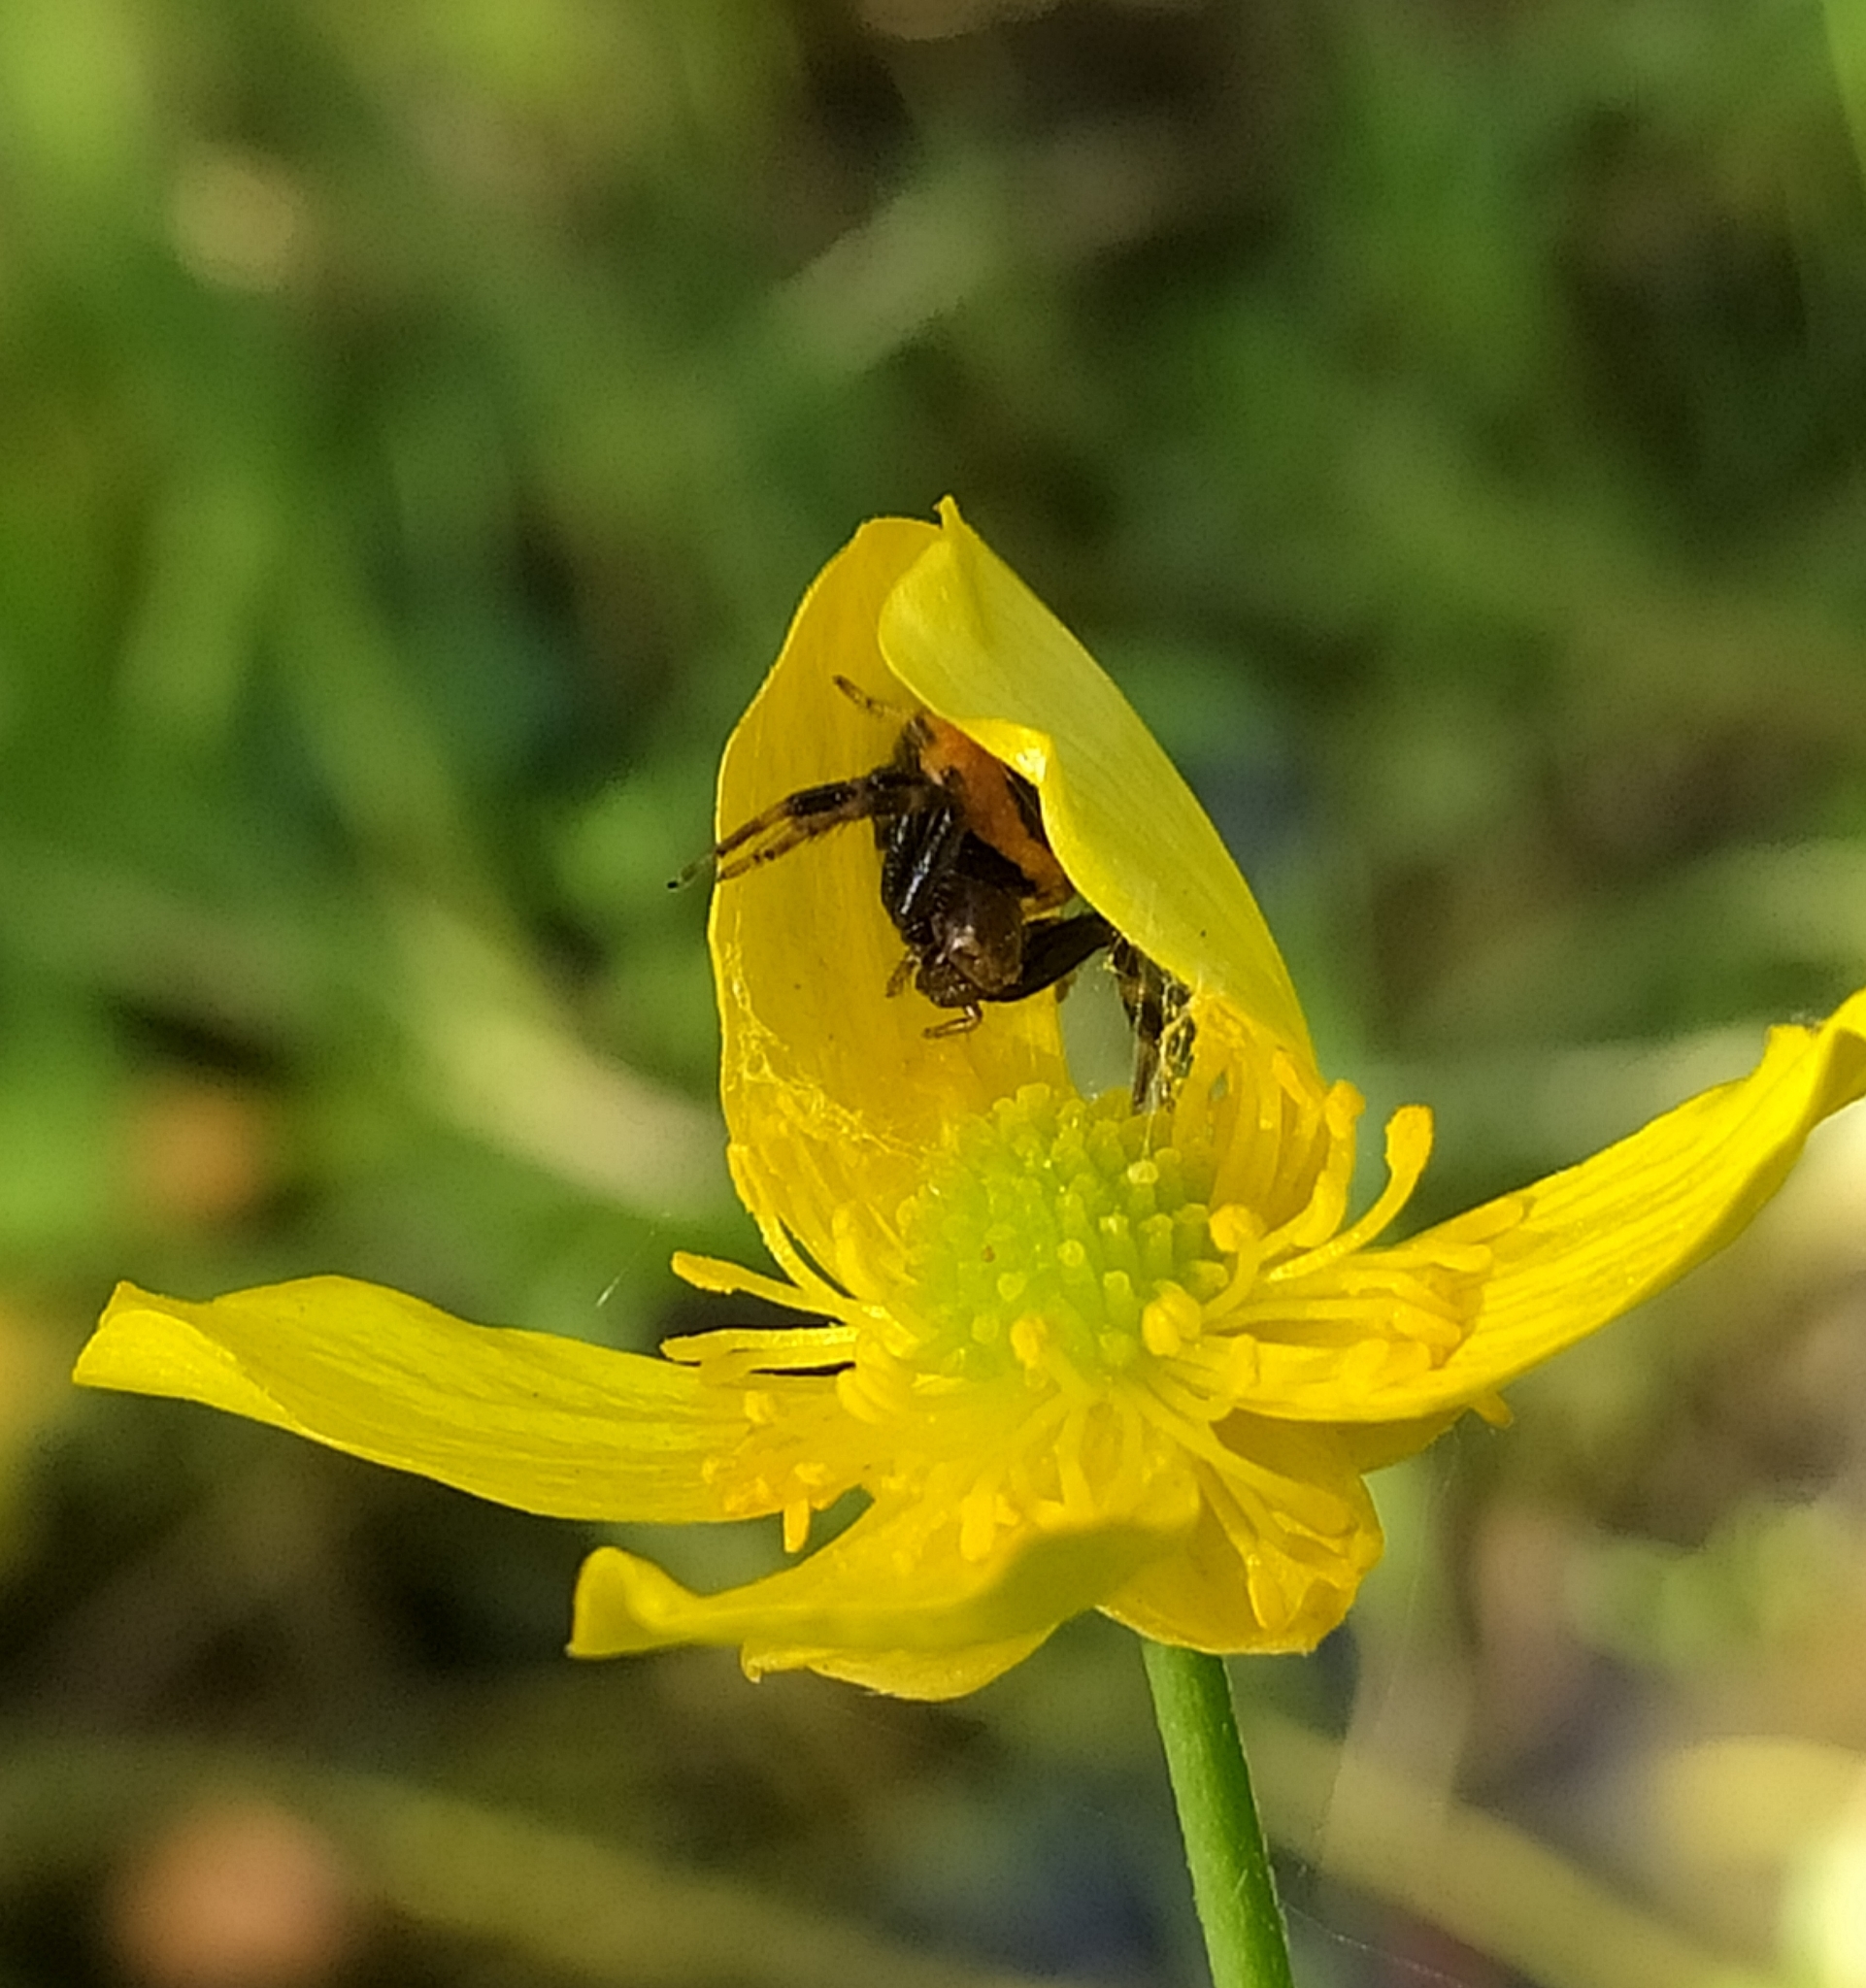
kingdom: Animalia
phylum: Arthropoda
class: Arachnida
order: Araneae
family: Thomisidae
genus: Synema
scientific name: Synema globosum
